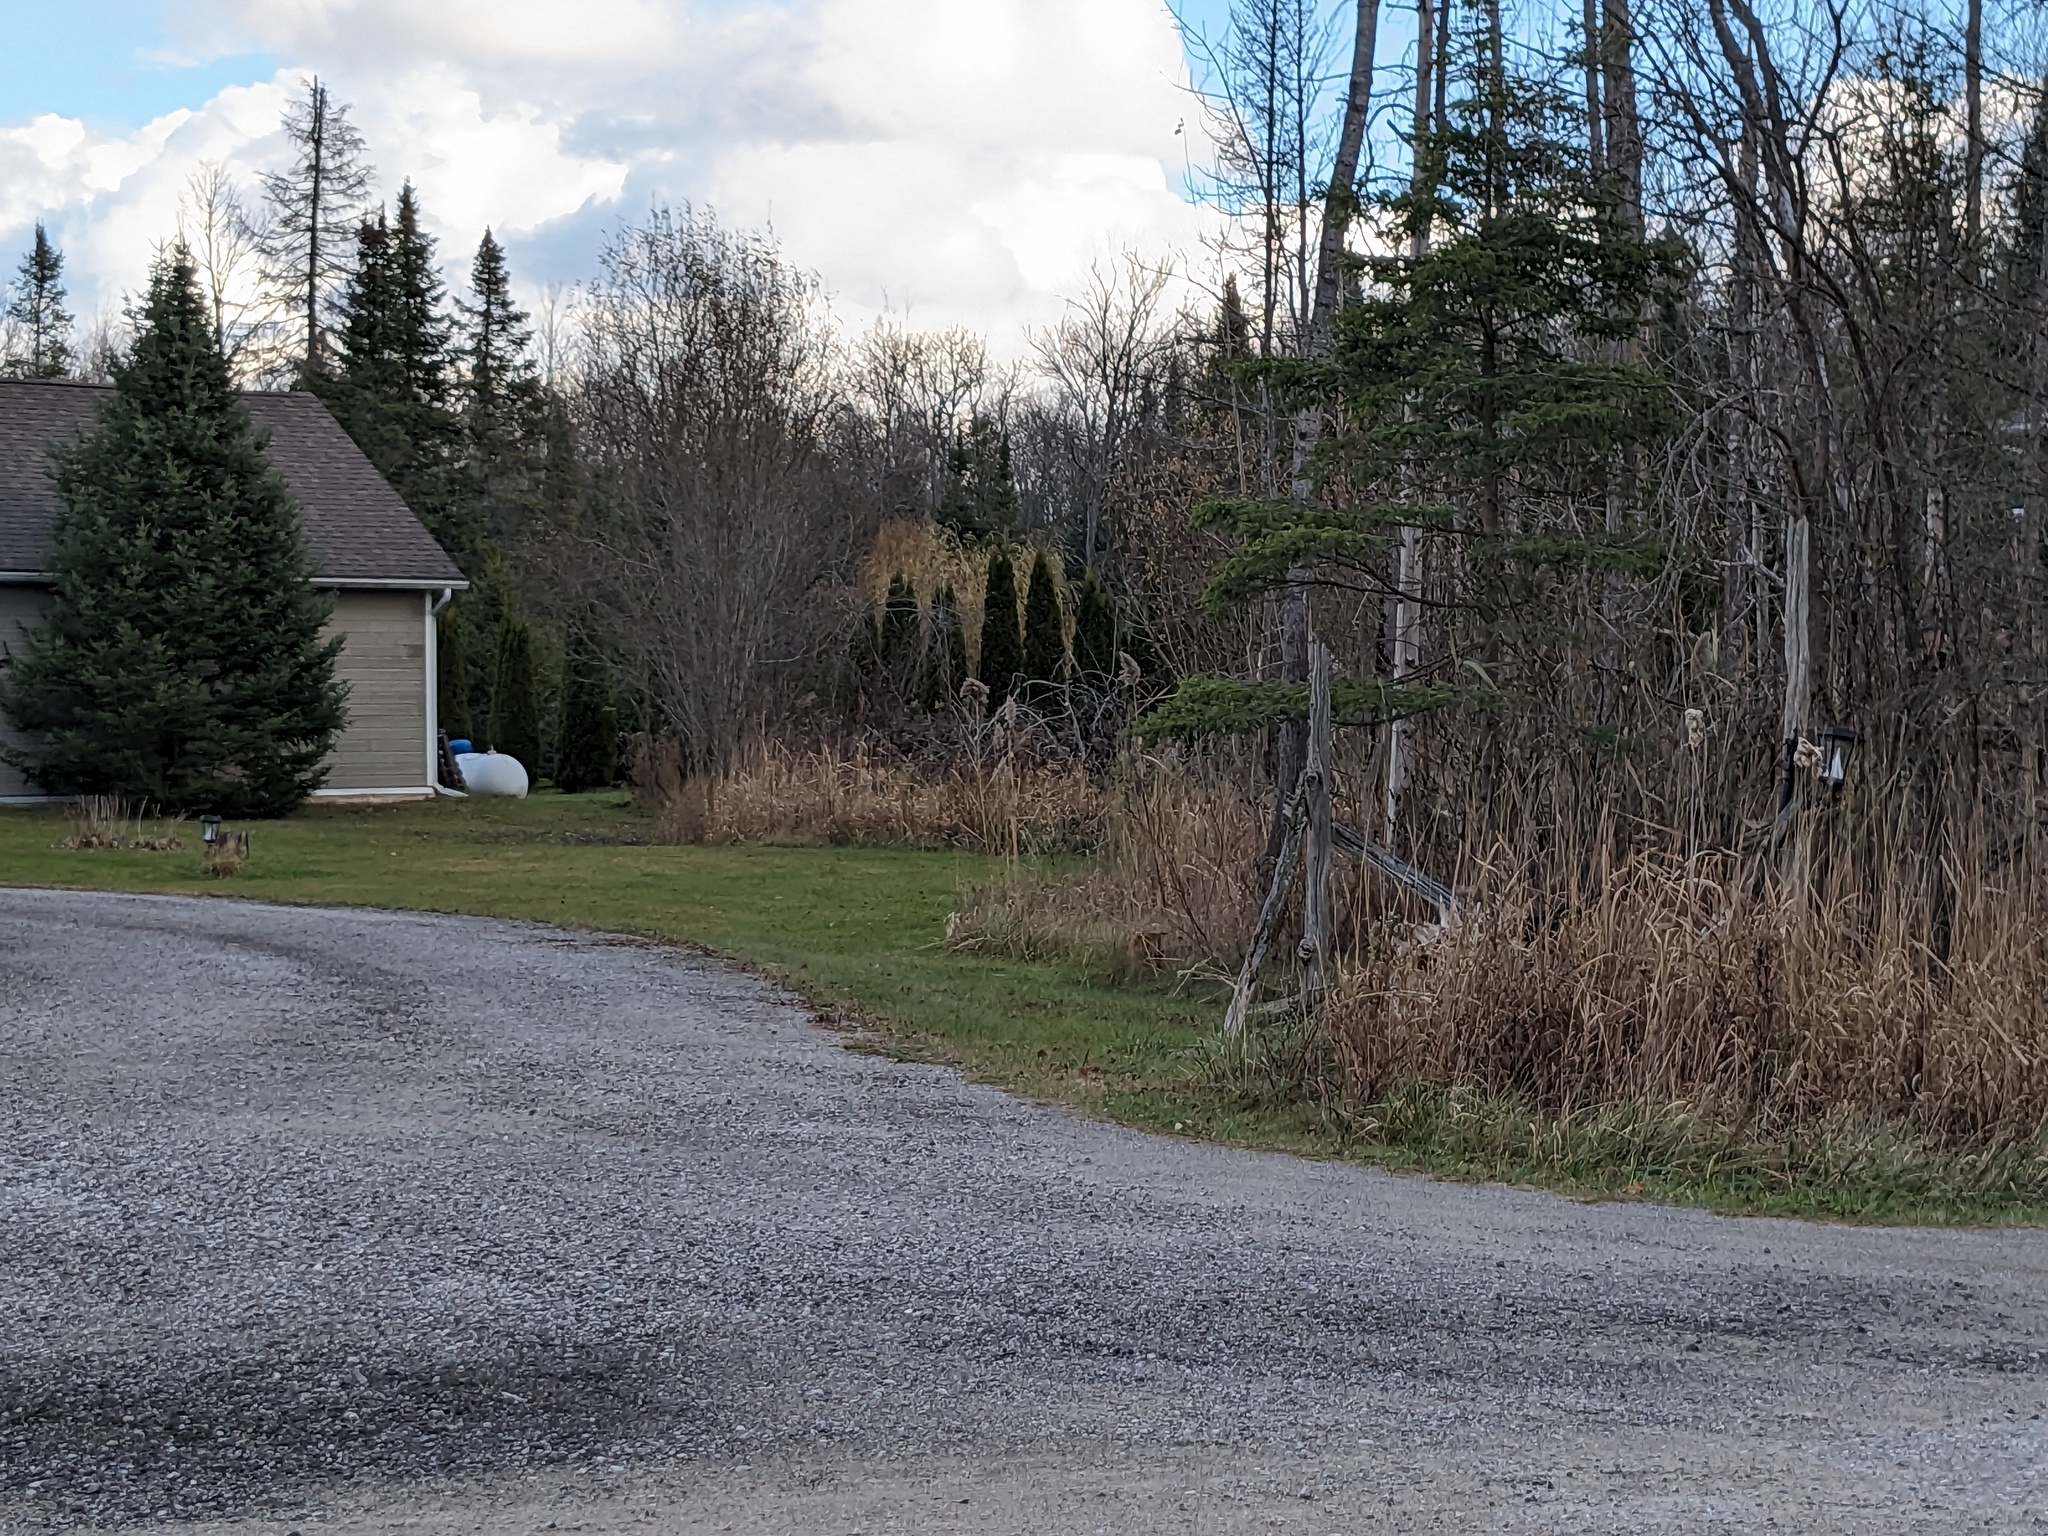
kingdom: Plantae
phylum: Tracheophyta
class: Liliopsida
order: Poales
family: Poaceae
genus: Phragmites
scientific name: Phragmites australis
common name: Common reed
